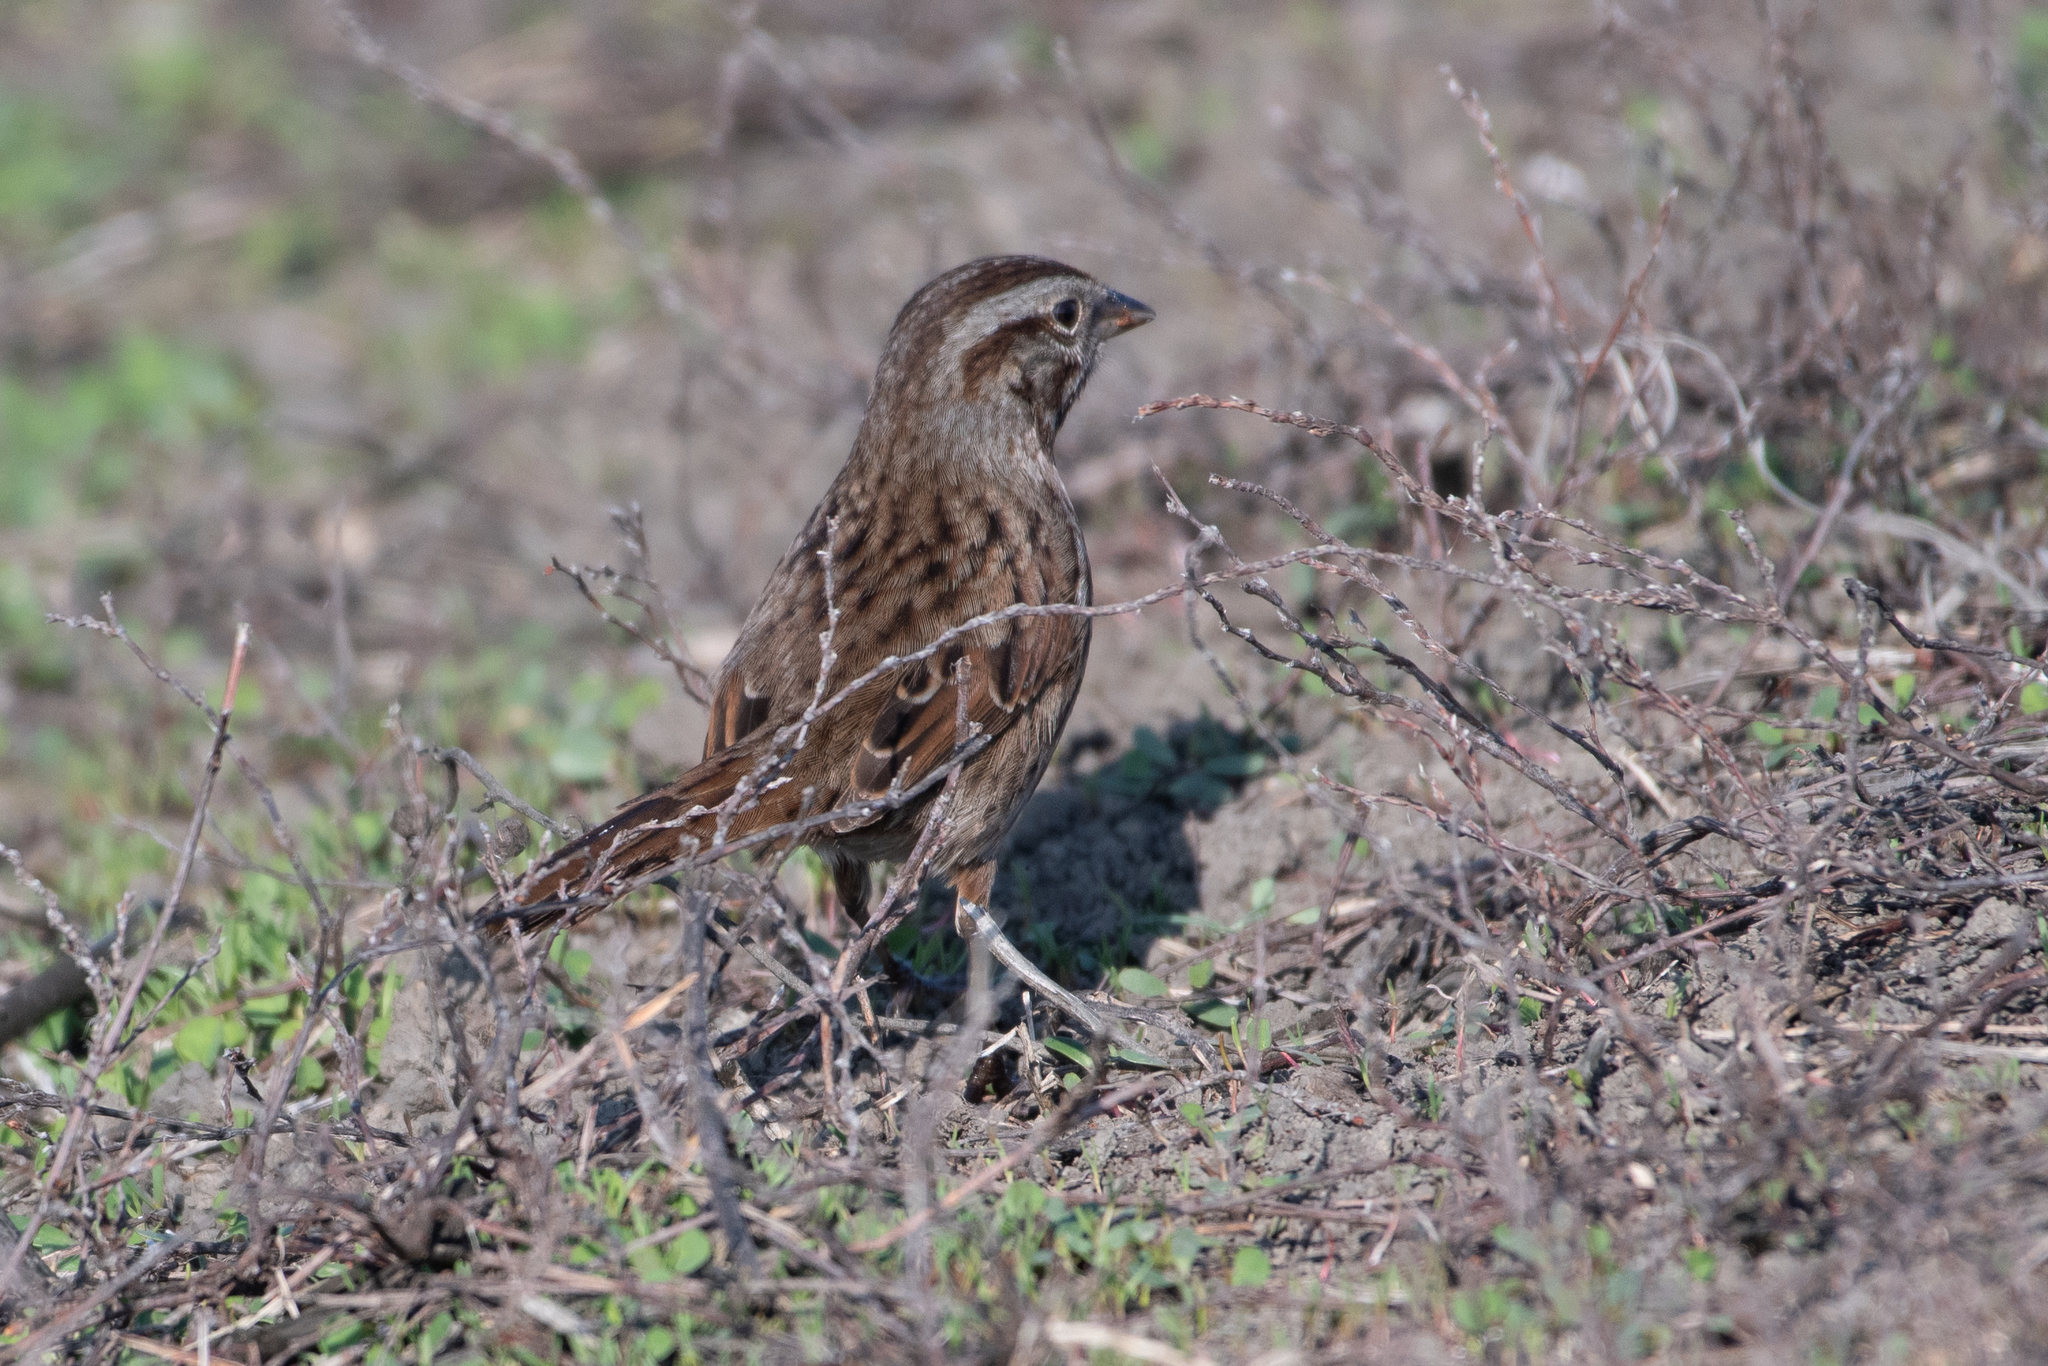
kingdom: Animalia
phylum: Chordata
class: Aves
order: Passeriformes
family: Passerellidae
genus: Melospiza
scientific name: Melospiza melodia
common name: Song sparrow
